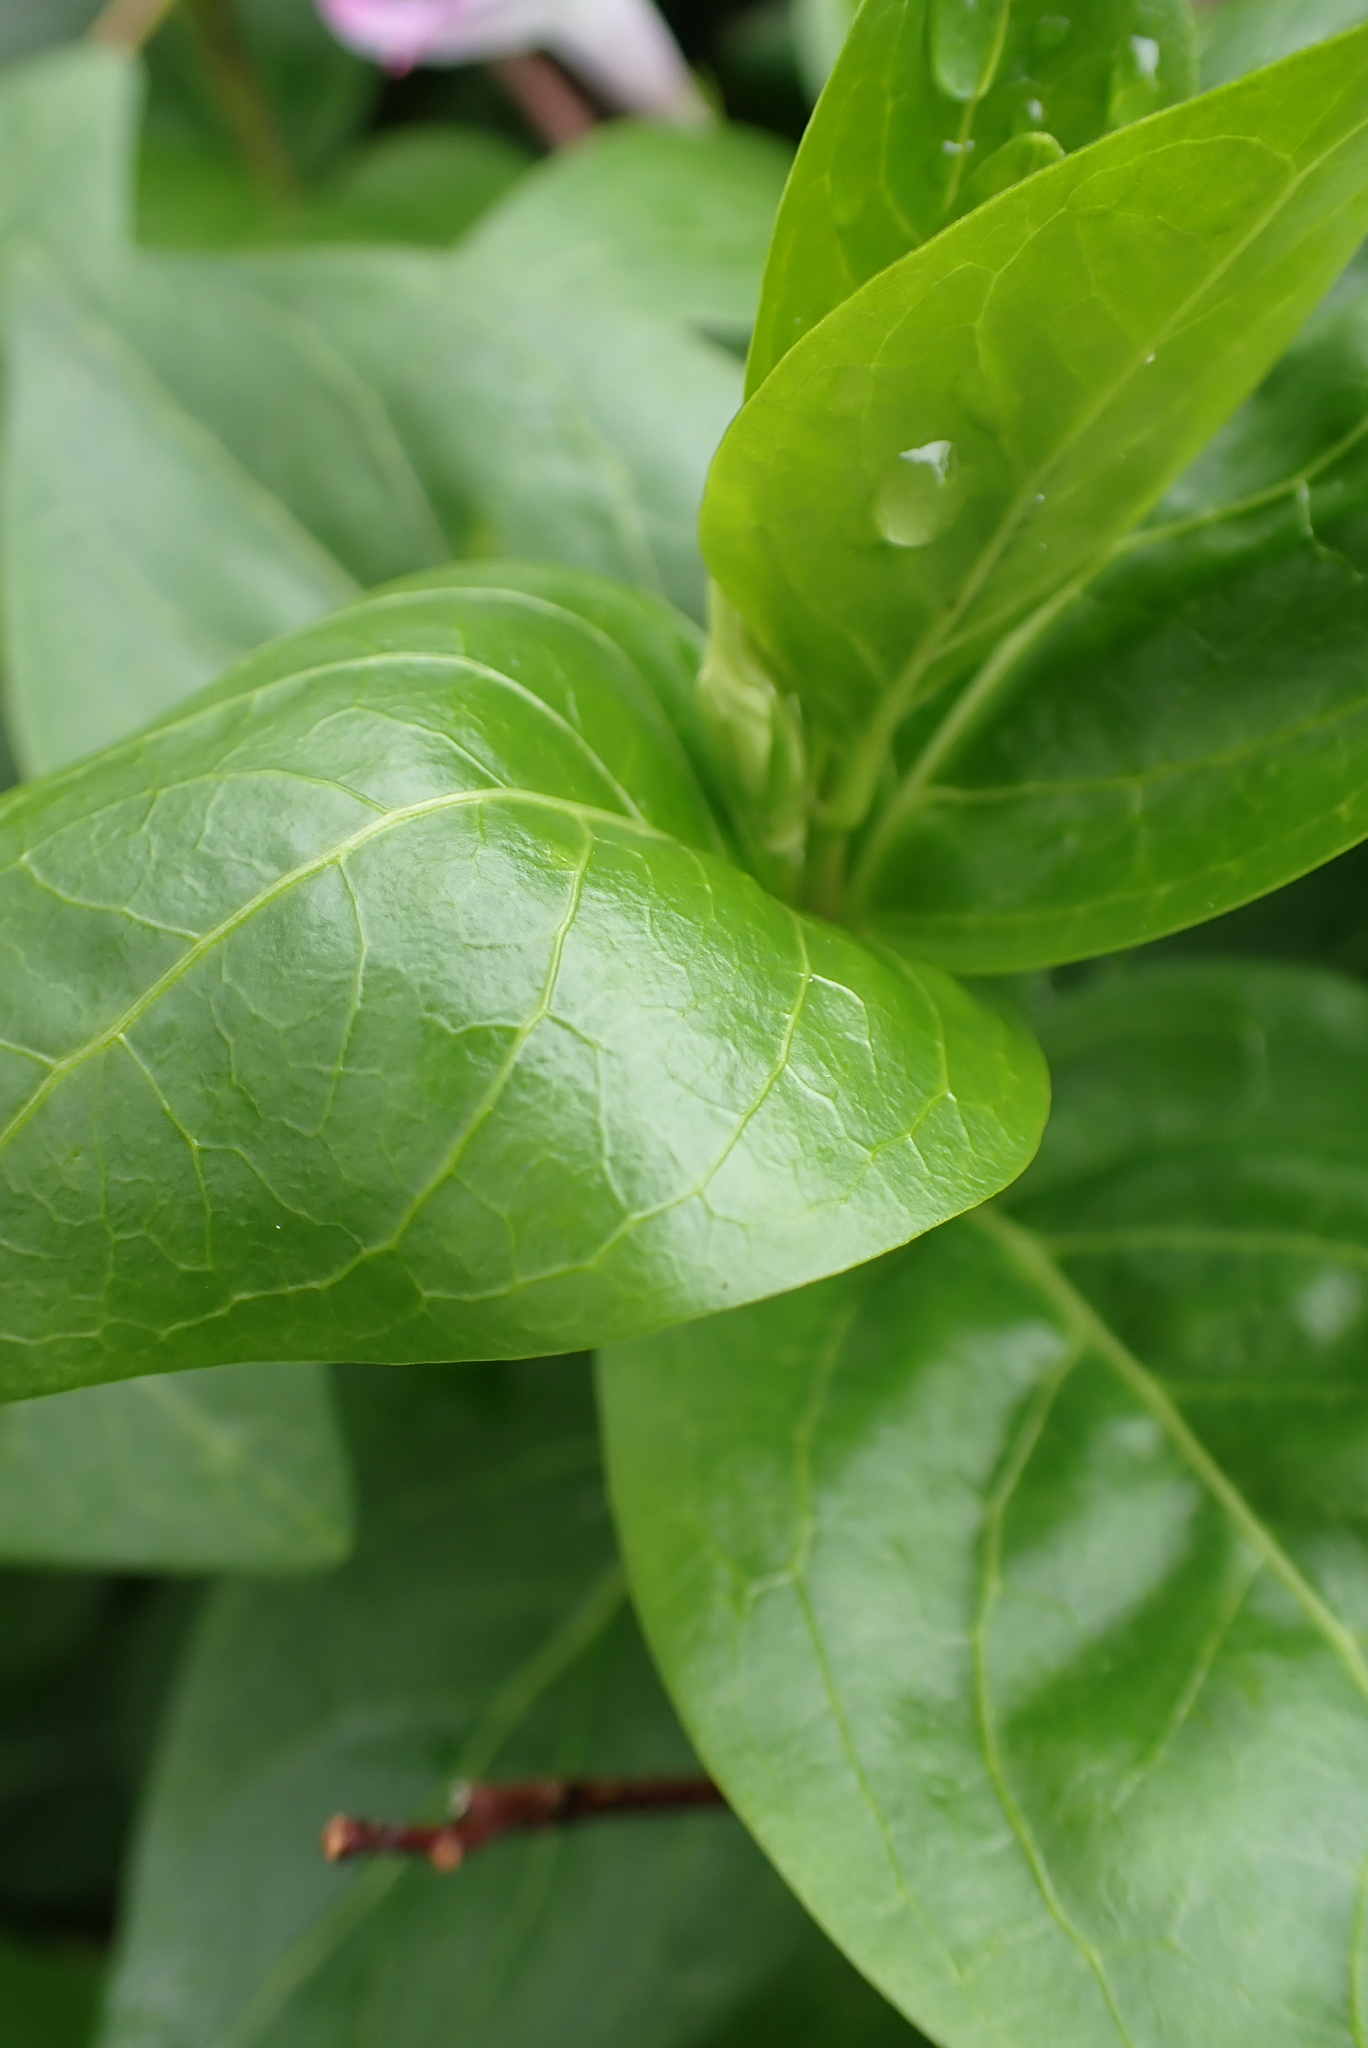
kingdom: Plantae
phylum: Tracheophyta
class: Magnoliopsida
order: Gentianales
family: Apocynaceae
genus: Vinca
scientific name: Vinca difformis
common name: Intermediate periwinkle
